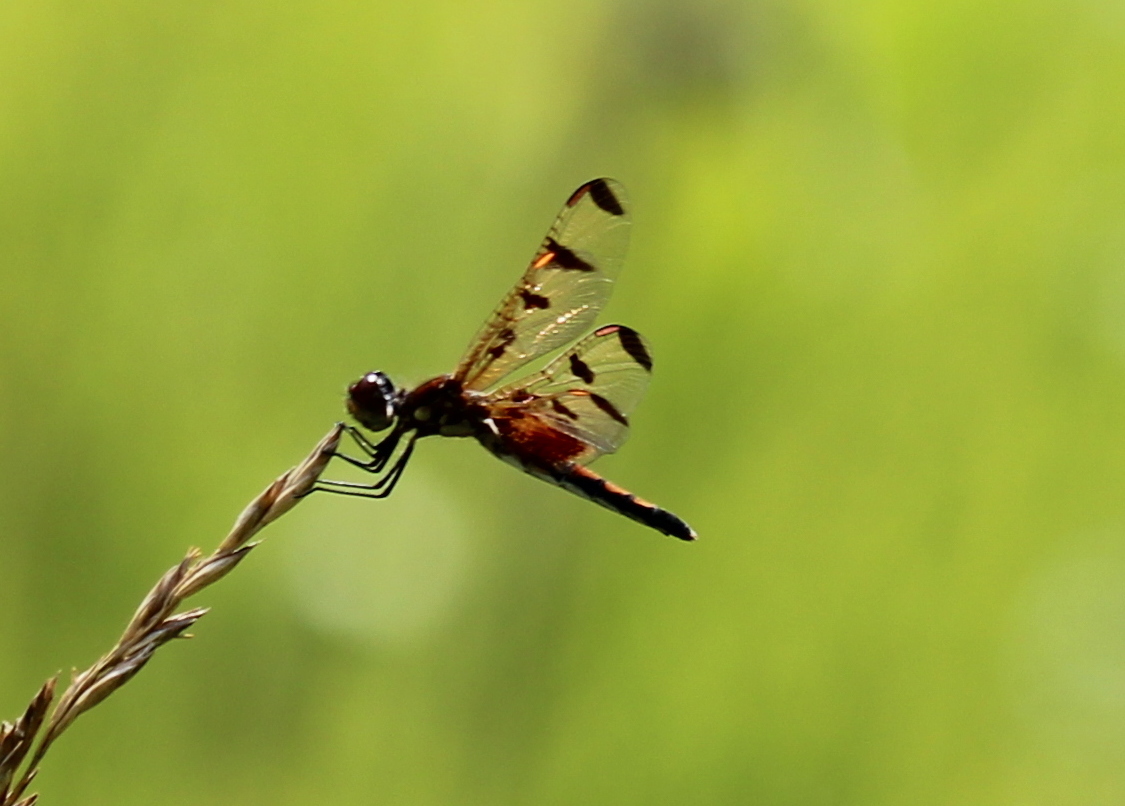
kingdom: Animalia
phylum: Arthropoda
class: Insecta
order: Odonata
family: Libellulidae
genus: Celithemis
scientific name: Celithemis elisa
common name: Calico pennant
